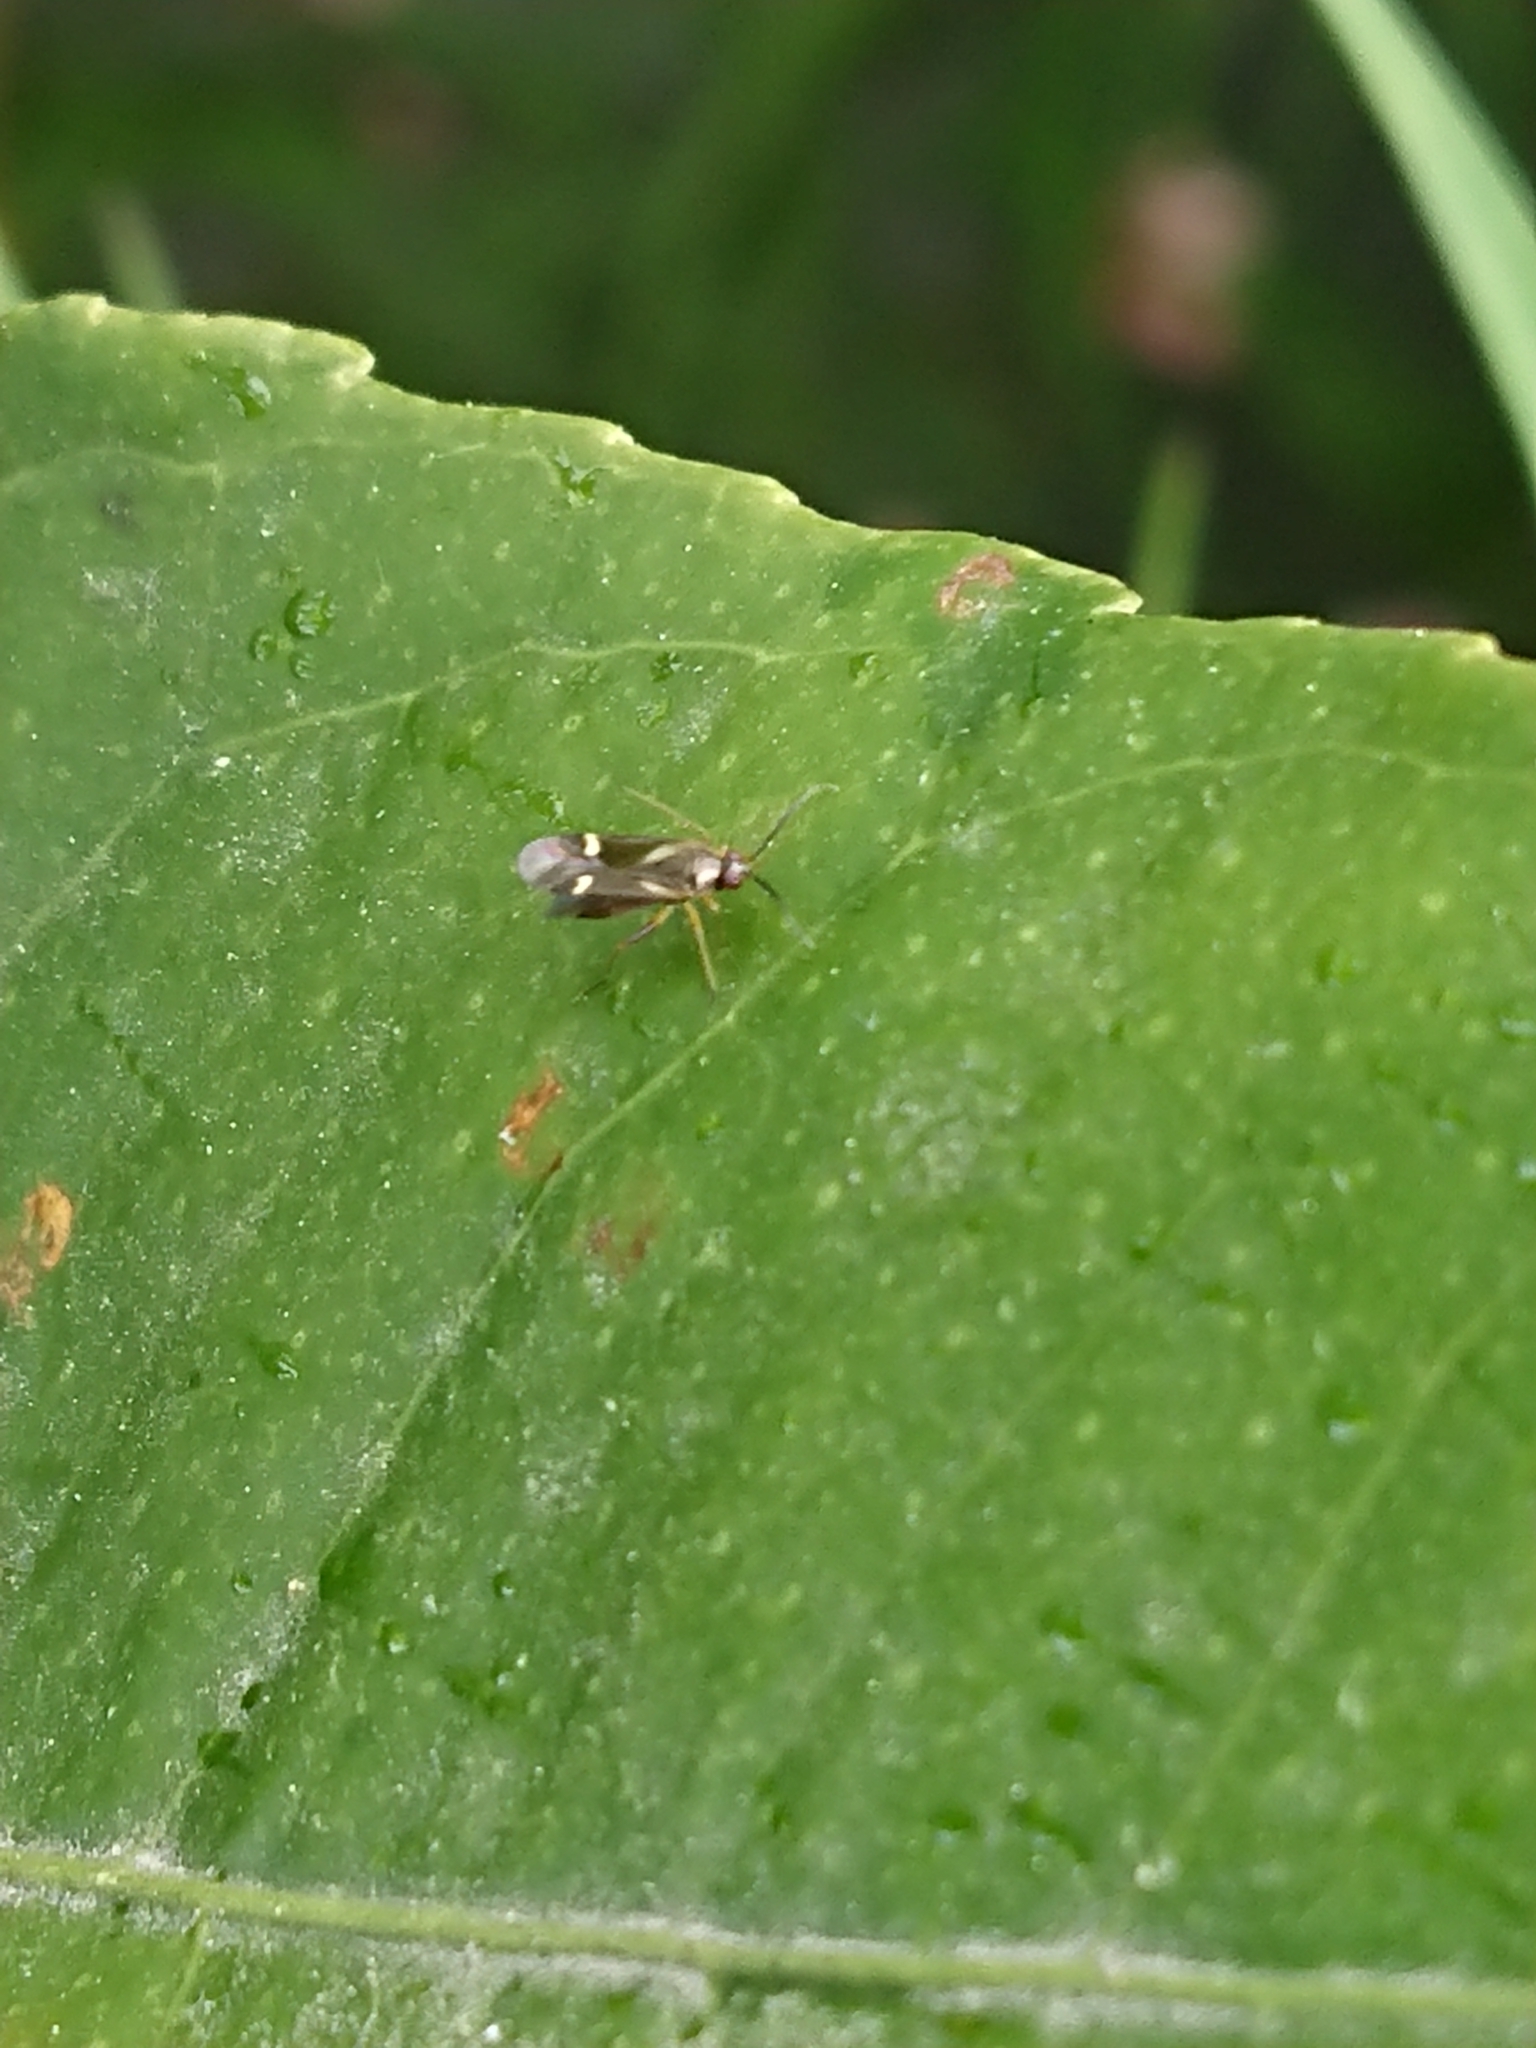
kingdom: Animalia
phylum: Arthropoda
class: Insecta
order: Hemiptera
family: Miridae
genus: Ausejanus
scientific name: Ausejanus albisignatus
